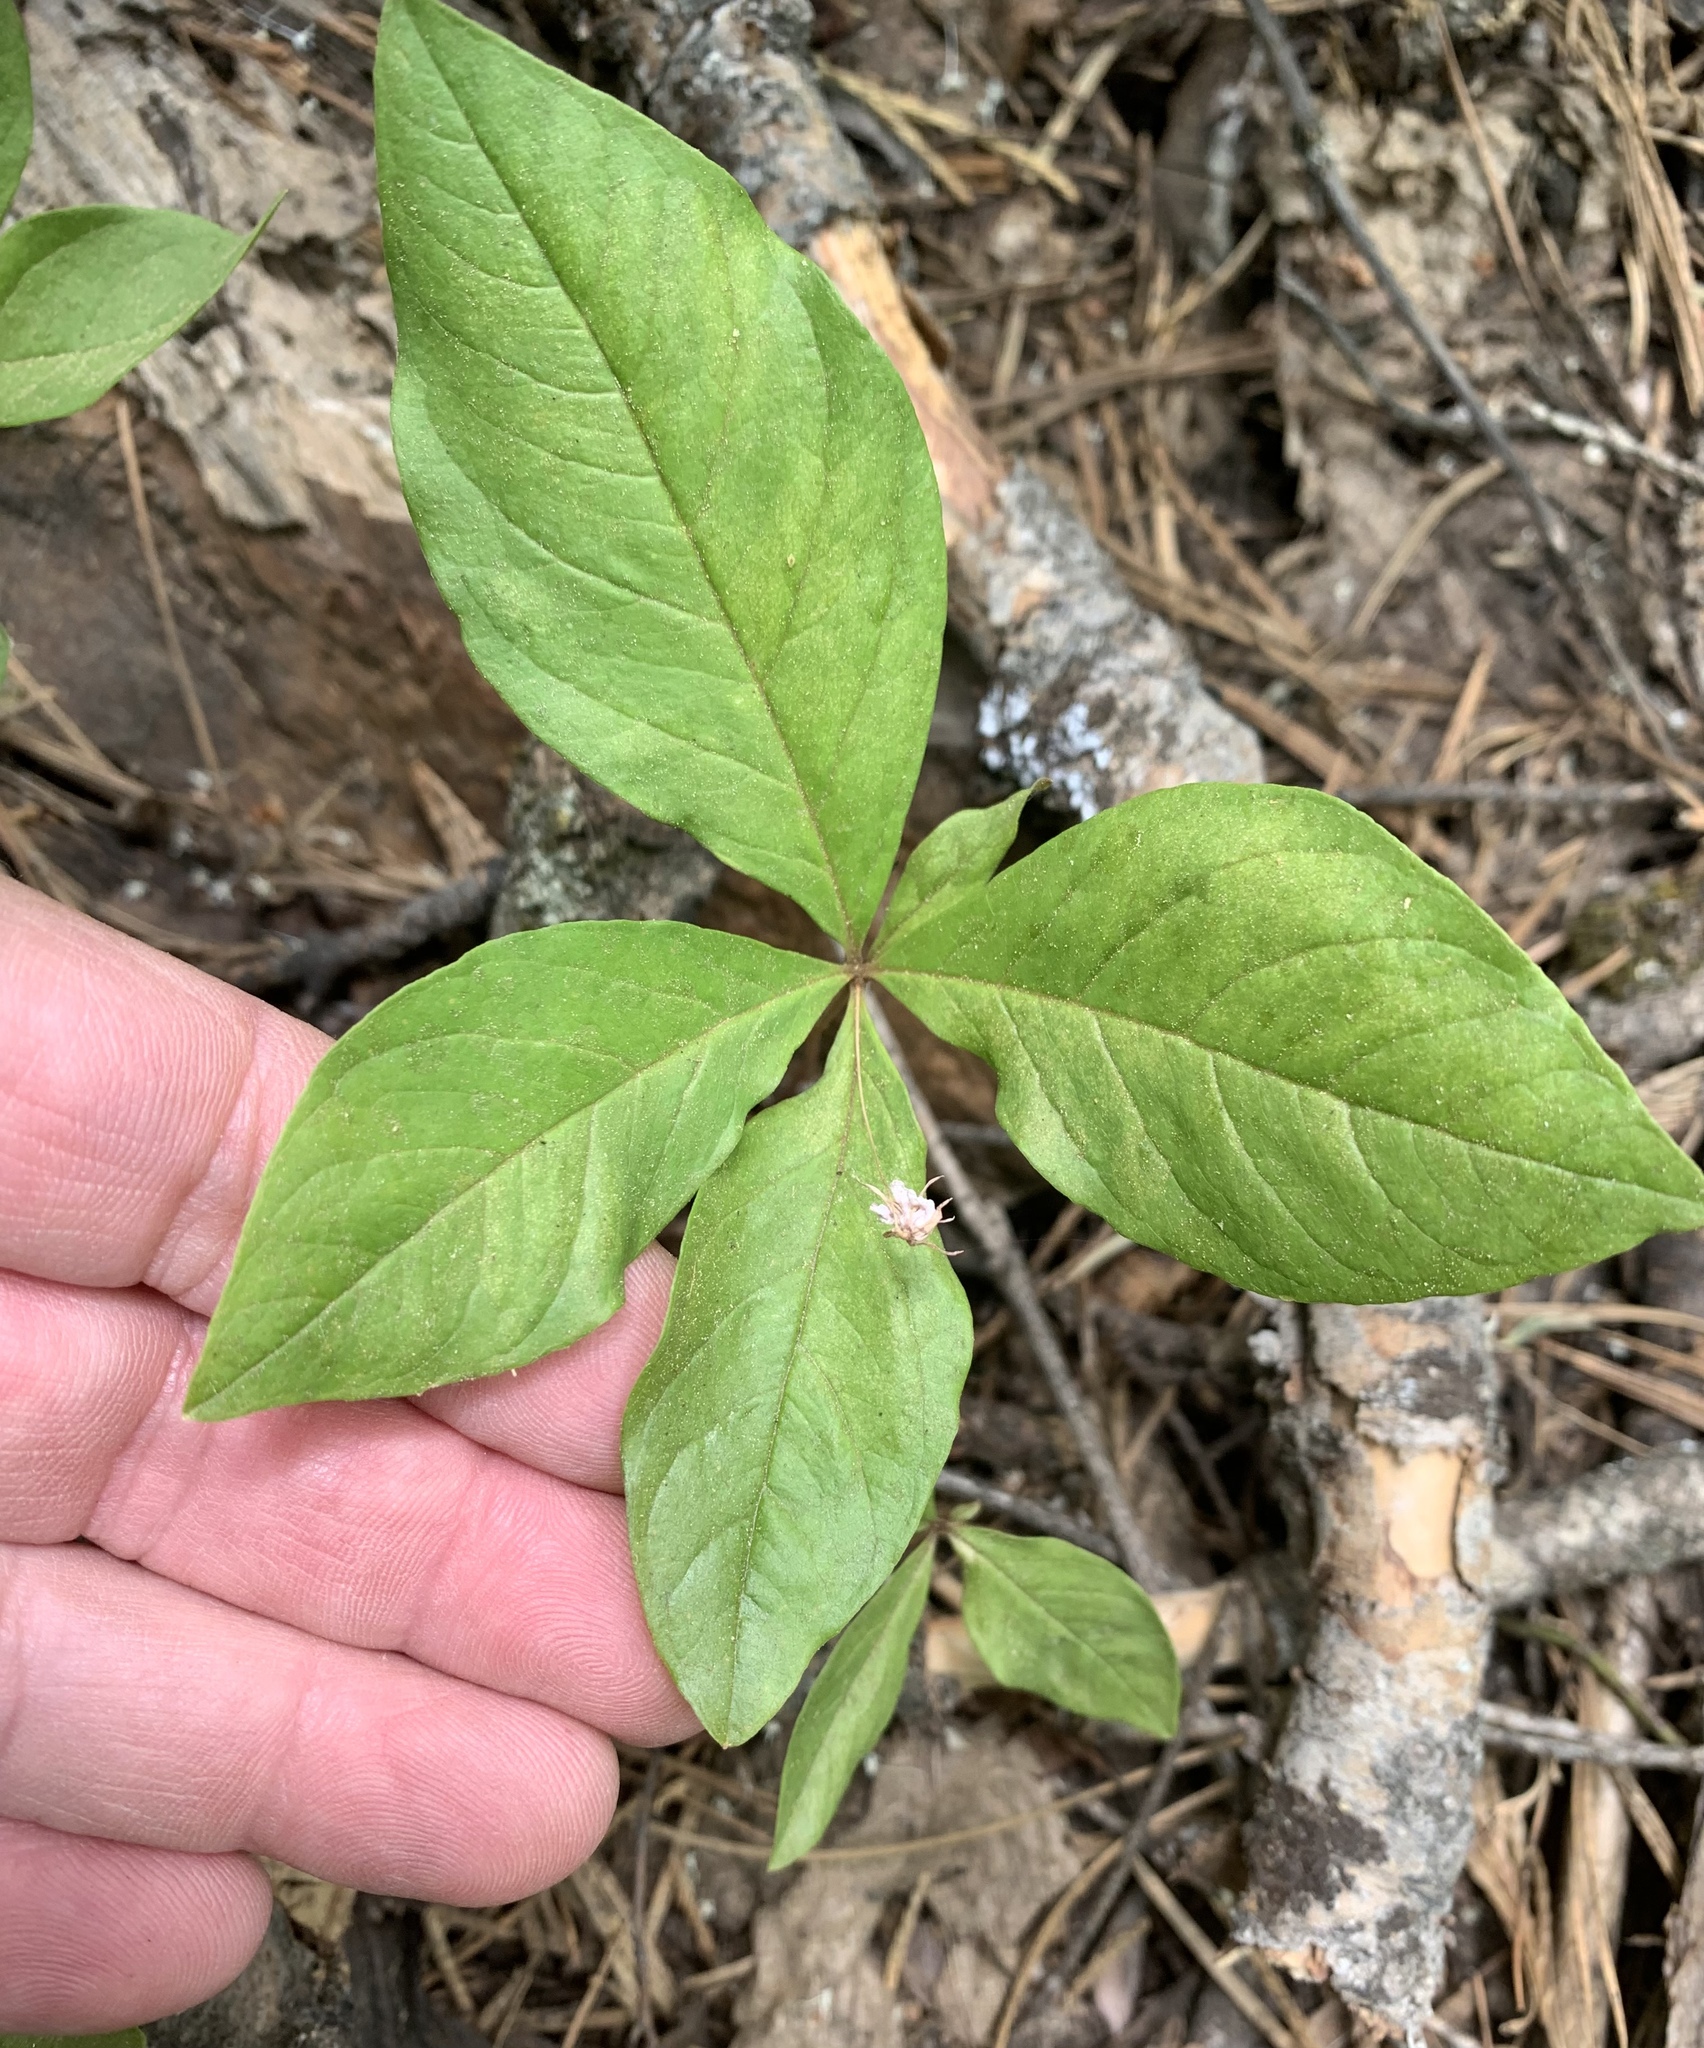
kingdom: Plantae
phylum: Tracheophyta
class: Magnoliopsida
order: Ericales
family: Primulaceae
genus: Lysimachia
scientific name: Lysimachia latifolia
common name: Pacific starflower
